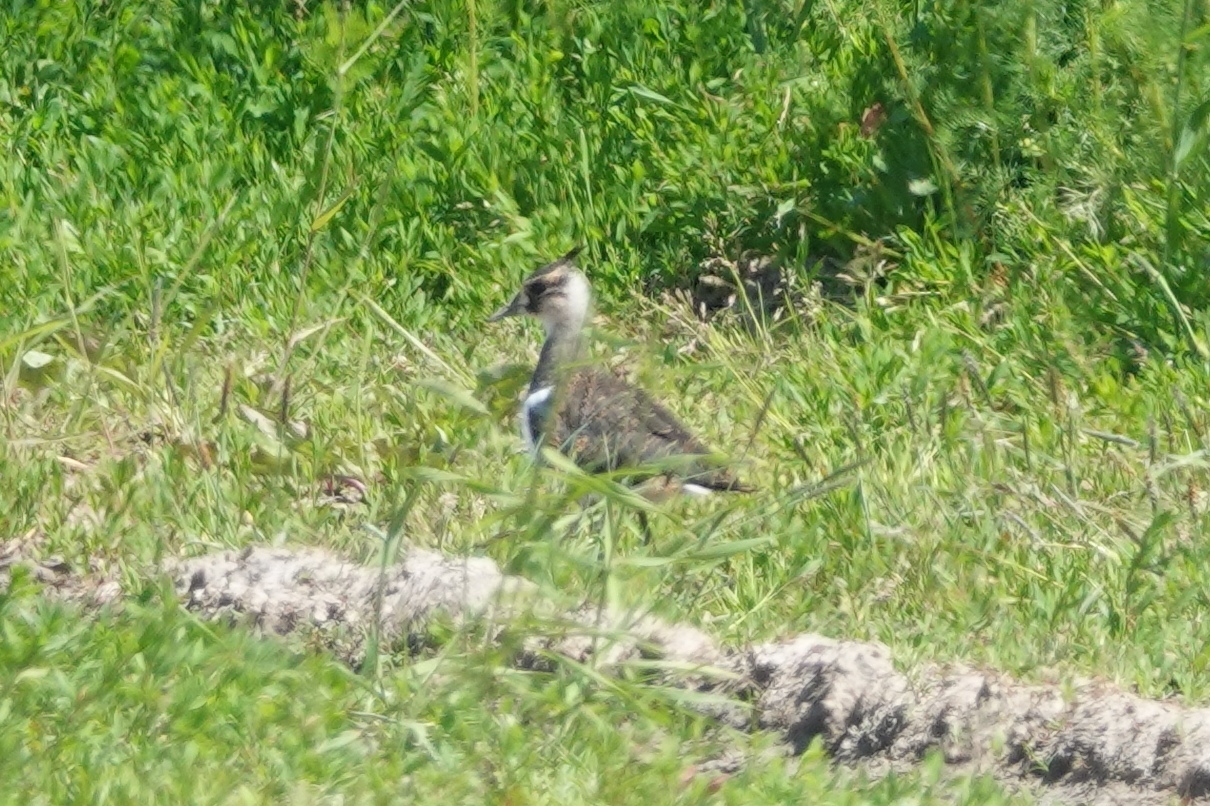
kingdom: Animalia
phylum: Chordata
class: Aves
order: Charadriiformes
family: Charadriidae
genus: Vanellus
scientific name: Vanellus vanellus
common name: Northern lapwing
